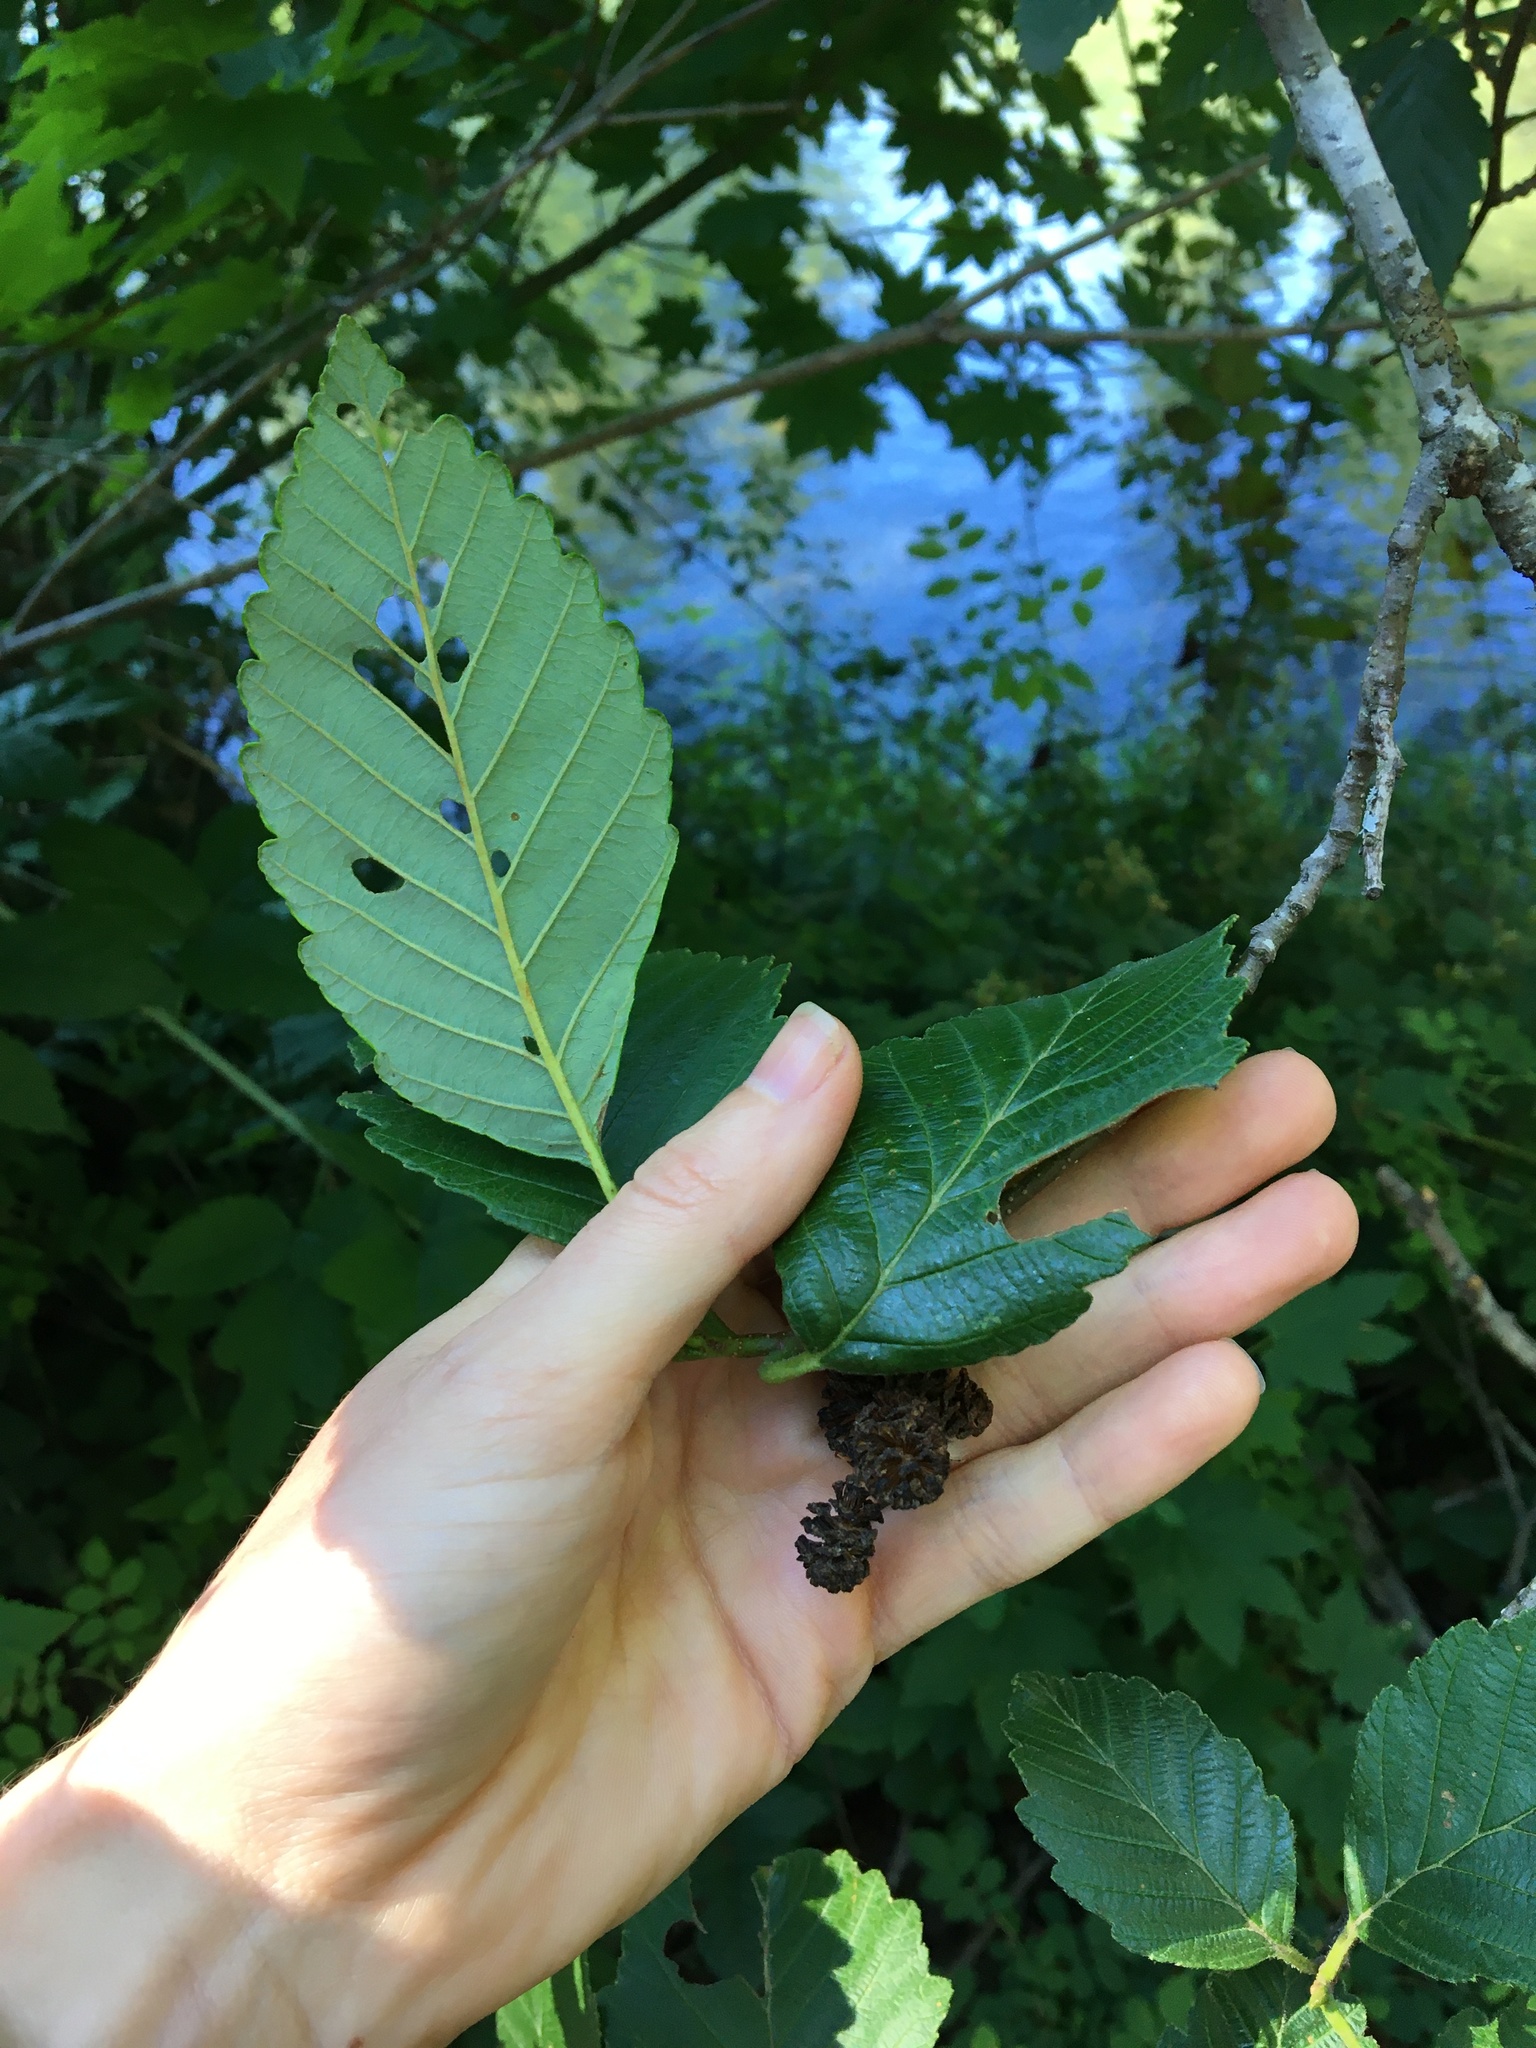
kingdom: Plantae
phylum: Tracheophyta
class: Magnoliopsida
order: Fagales
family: Betulaceae
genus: Alnus
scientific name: Alnus rubra
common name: Red alder
